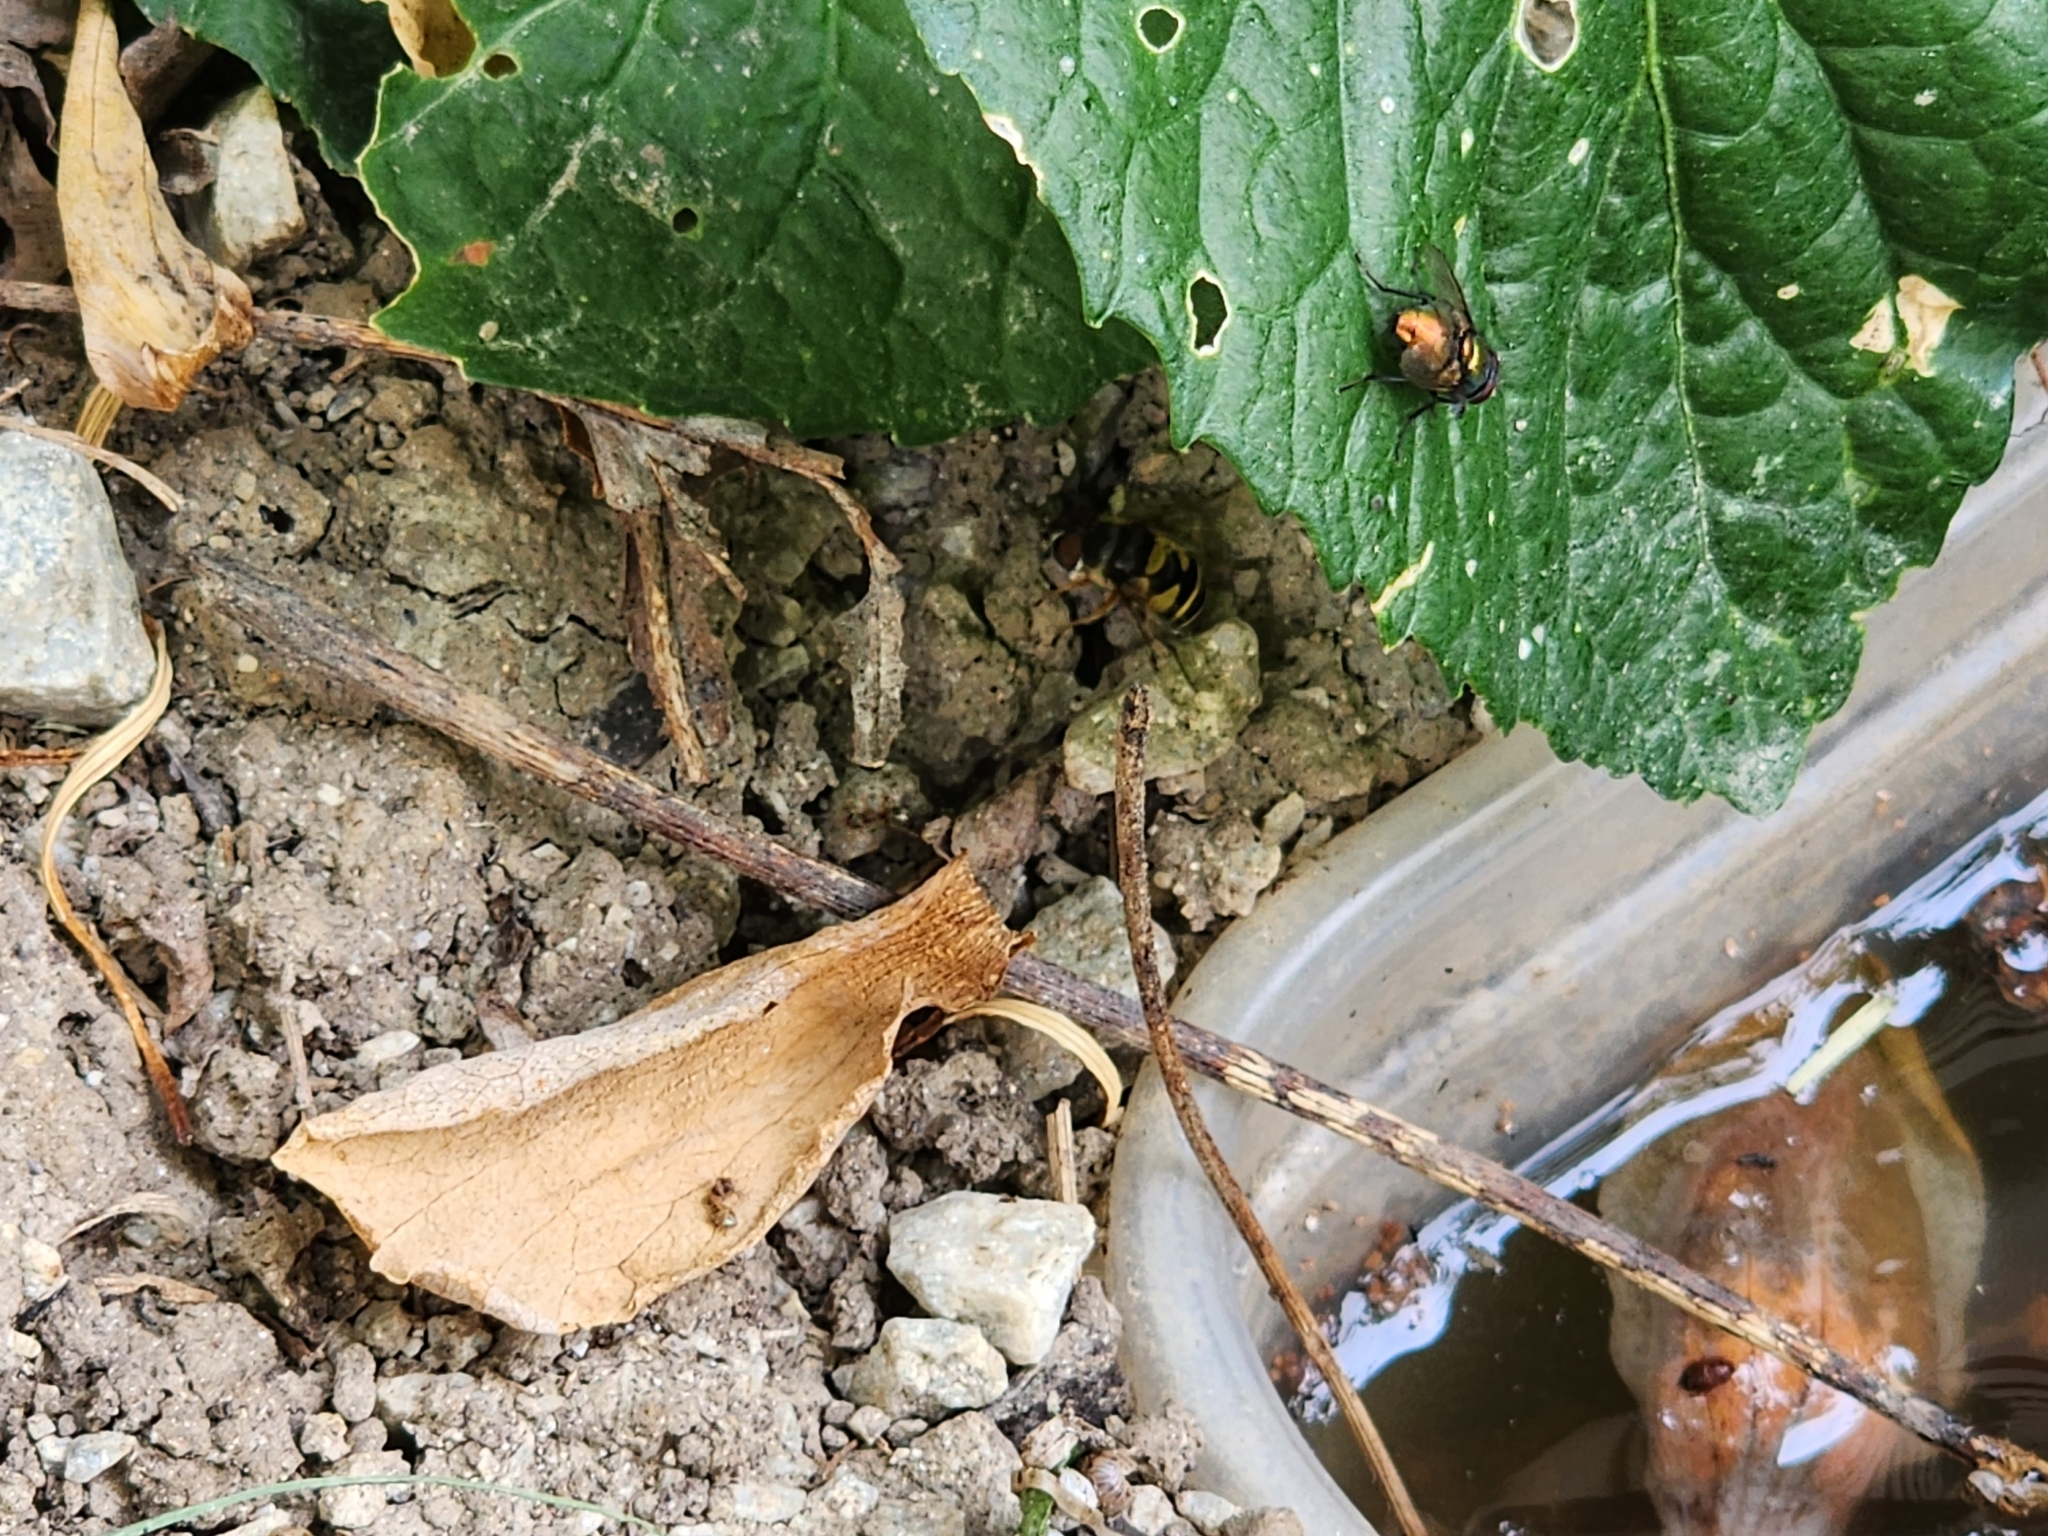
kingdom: Animalia
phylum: Arthropoda
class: Insecta
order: Diptera
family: Syrphidae
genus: Eristalis
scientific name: Eristalis transversa
